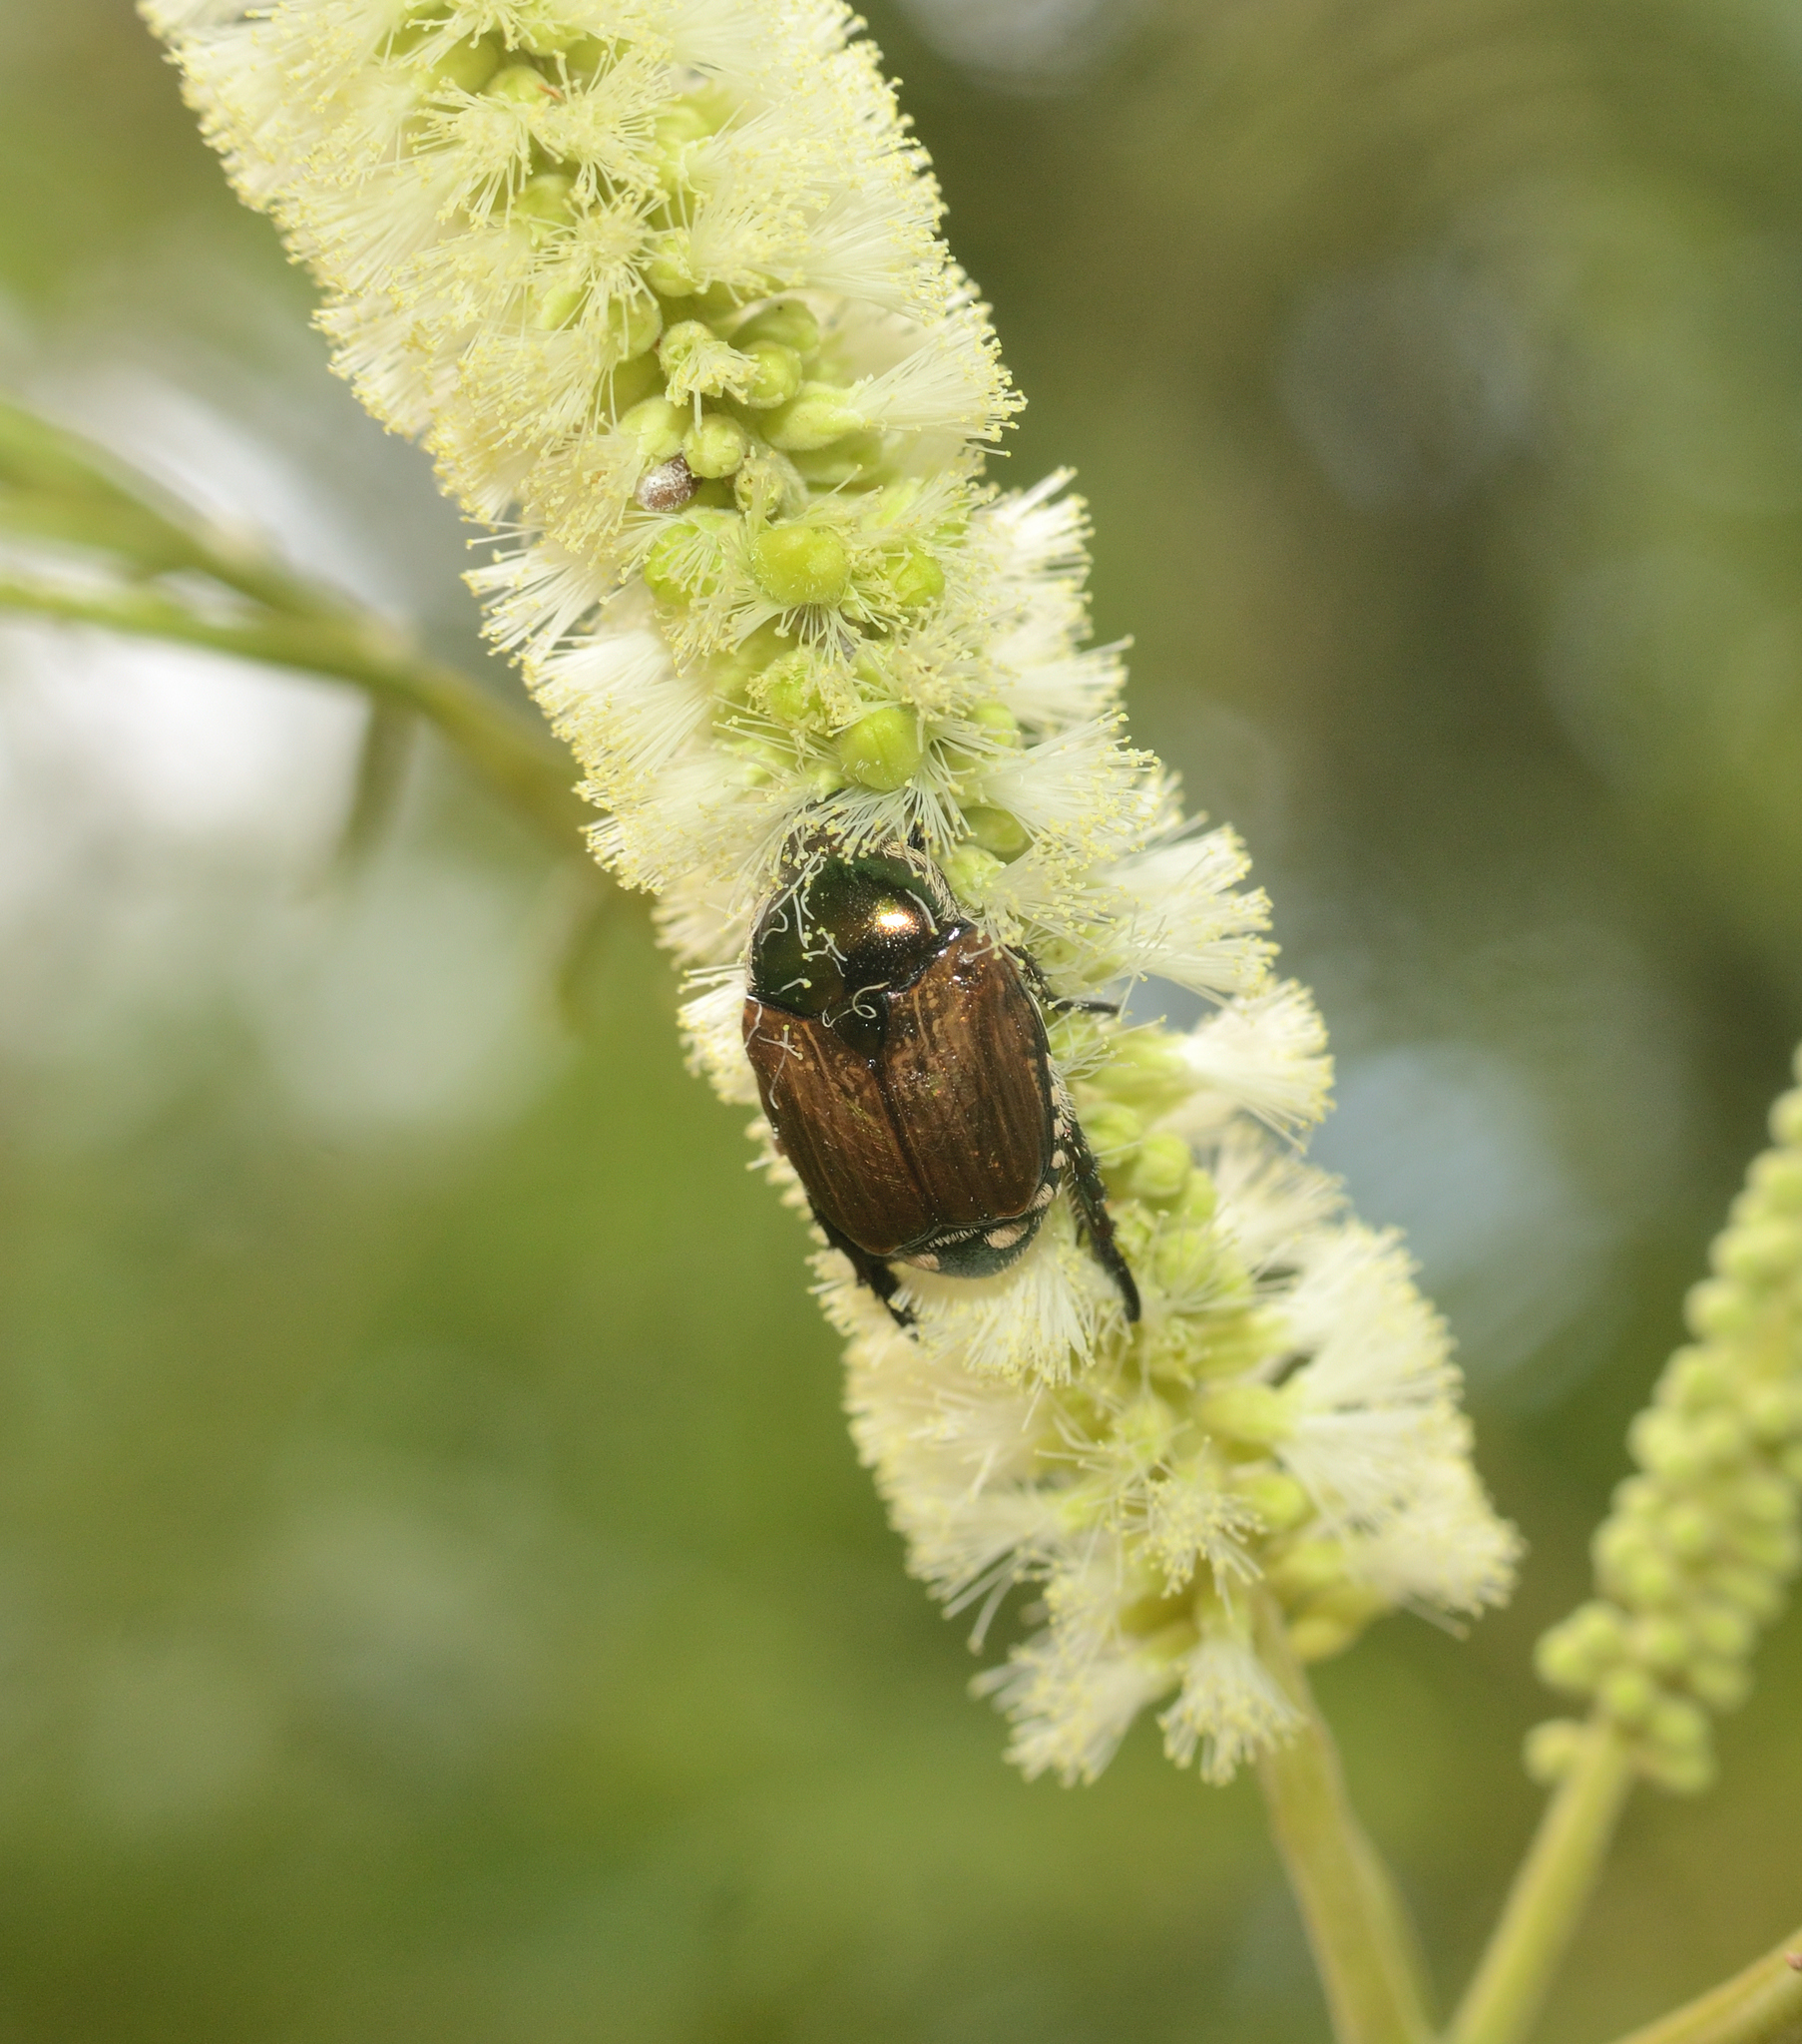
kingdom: Animalia
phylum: Arthropoda
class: Insecta
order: Coleoptera
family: Scarabaeidae
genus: Popillia
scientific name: Popillia japonica
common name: Japanese beetle
